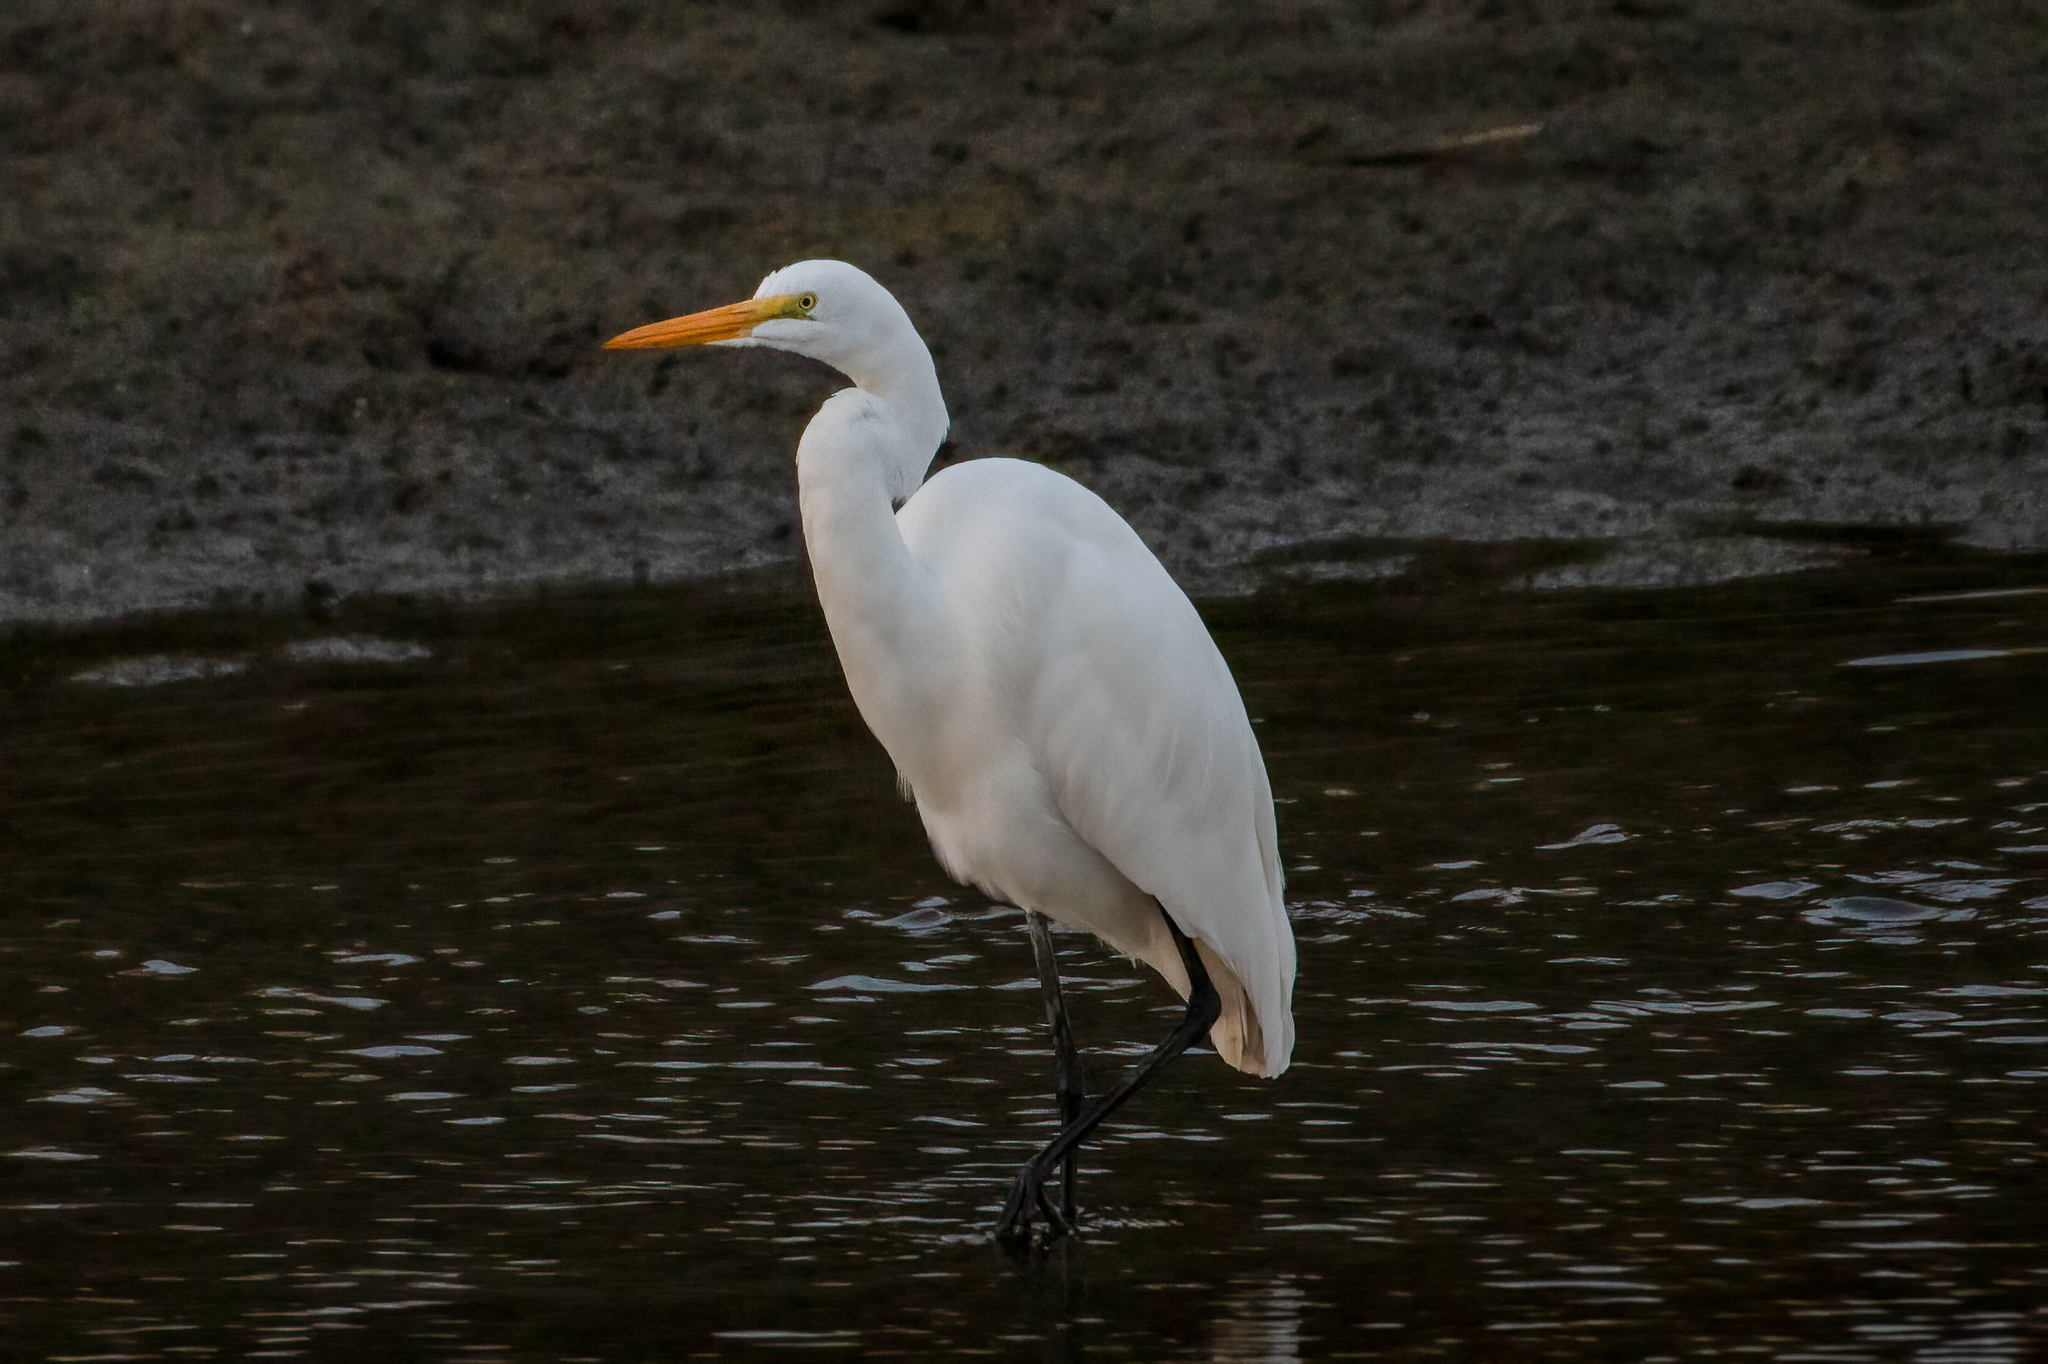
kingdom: Animalia
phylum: Chordata
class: Aves
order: Pelecaniformes
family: Ardeidae
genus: Ardea
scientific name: Ardea alba
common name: Great egret
